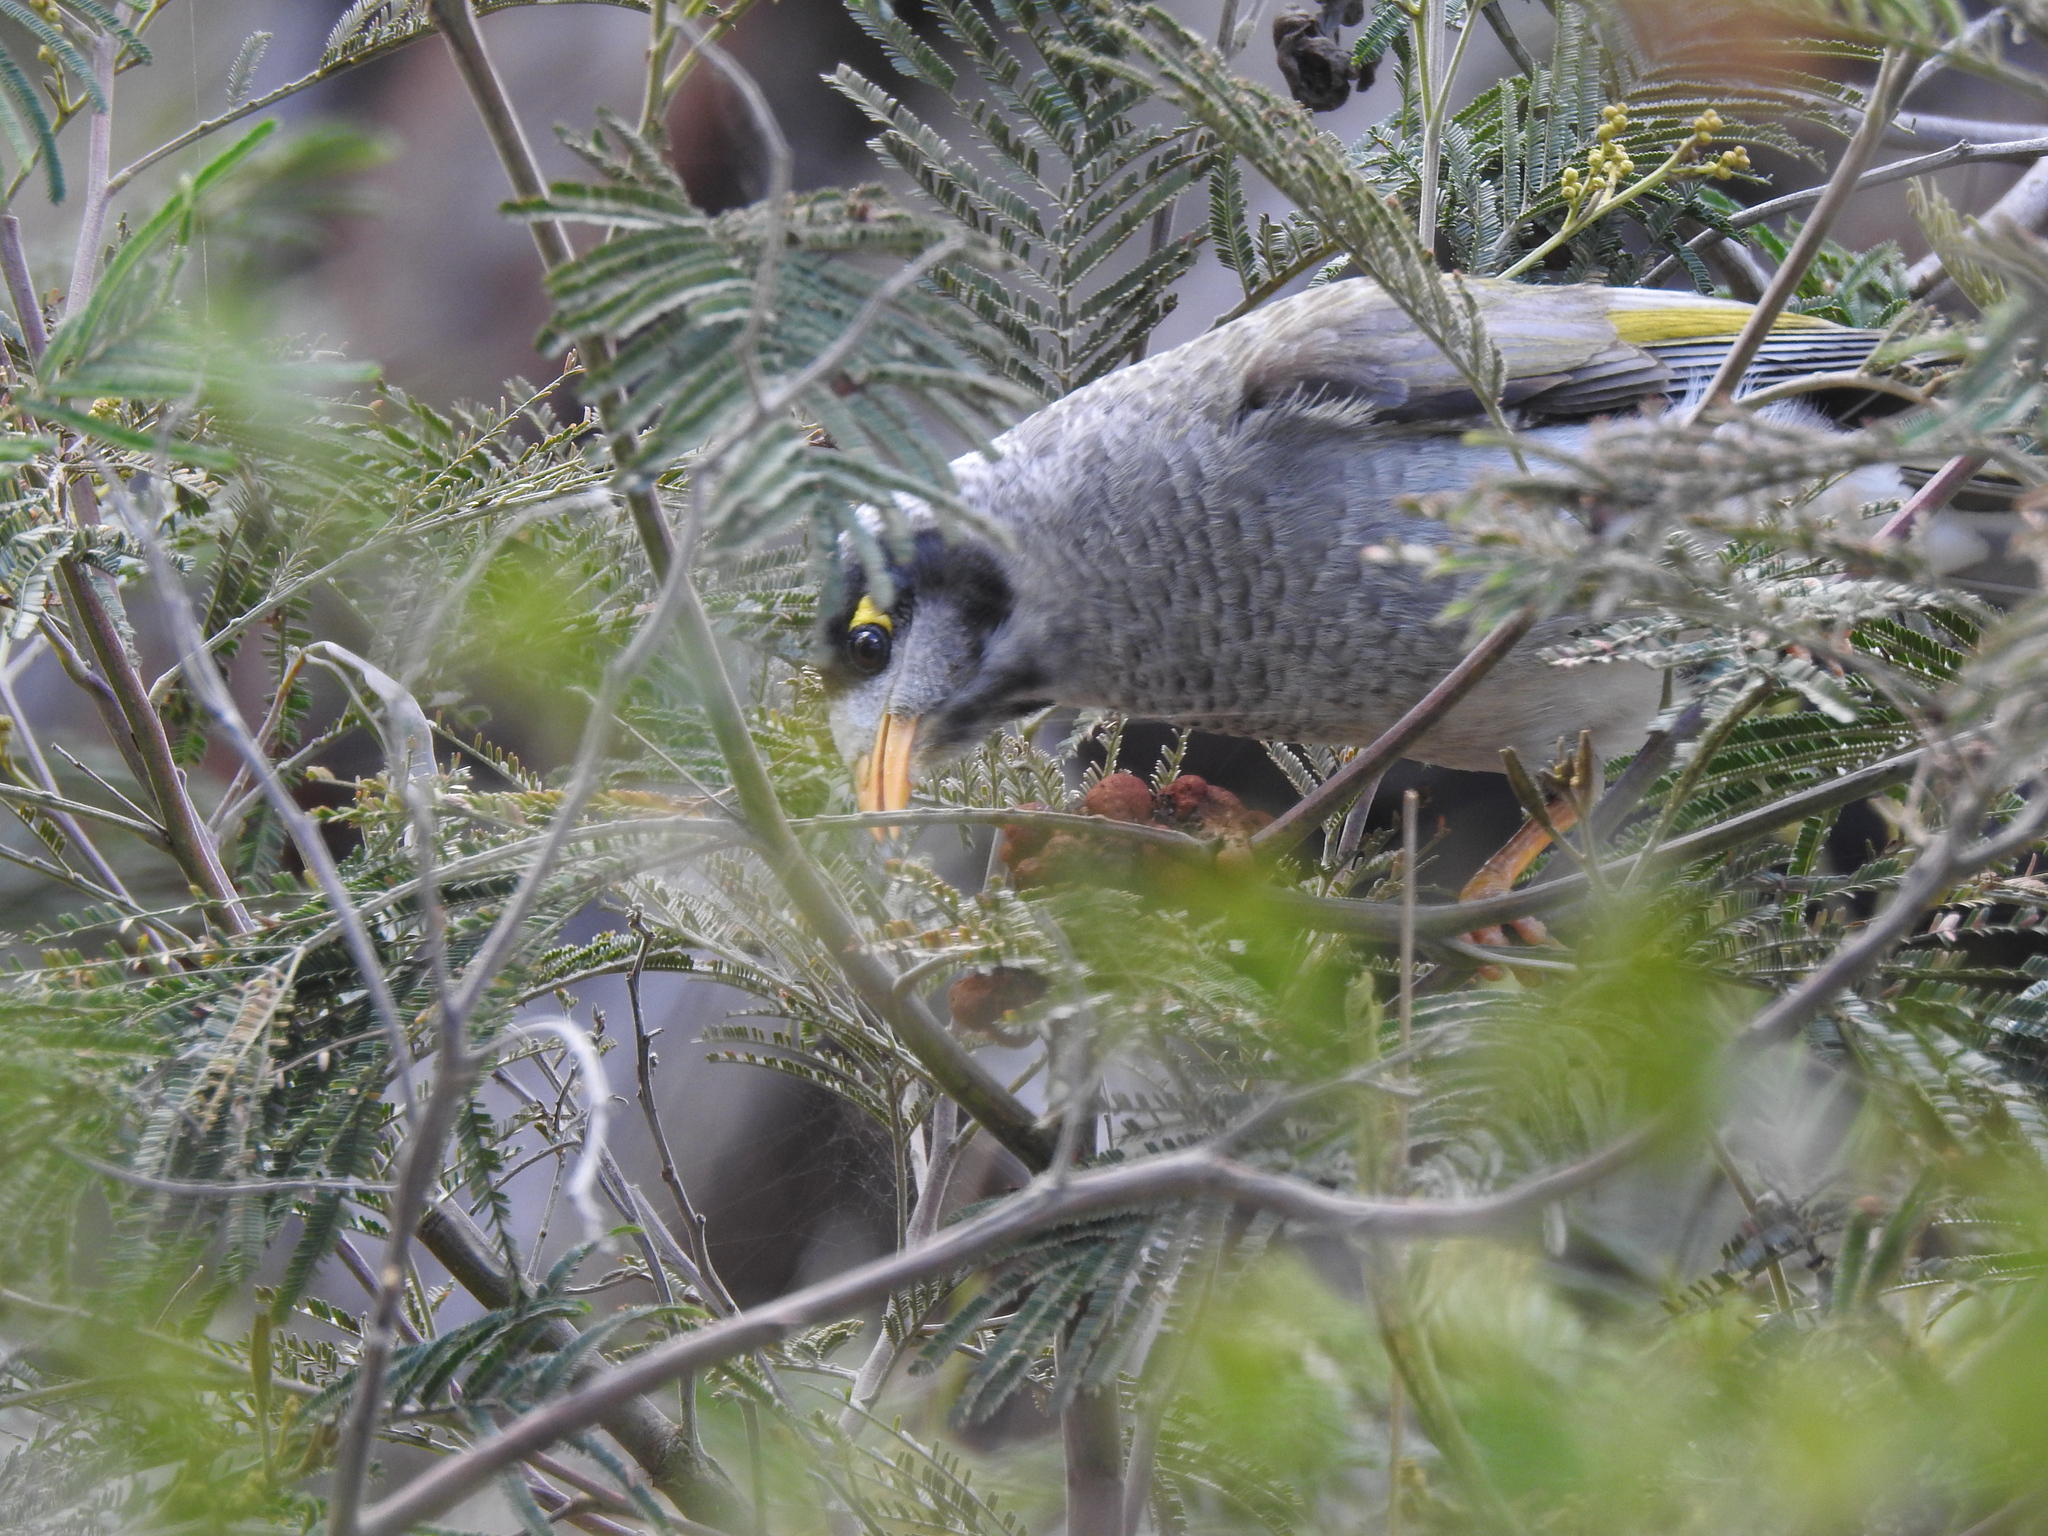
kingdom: Animalia
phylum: Chordata
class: Aves
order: Passeriformes
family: Meliphagidae
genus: Manorina
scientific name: Manorina melanocephala
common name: Noisy miner
